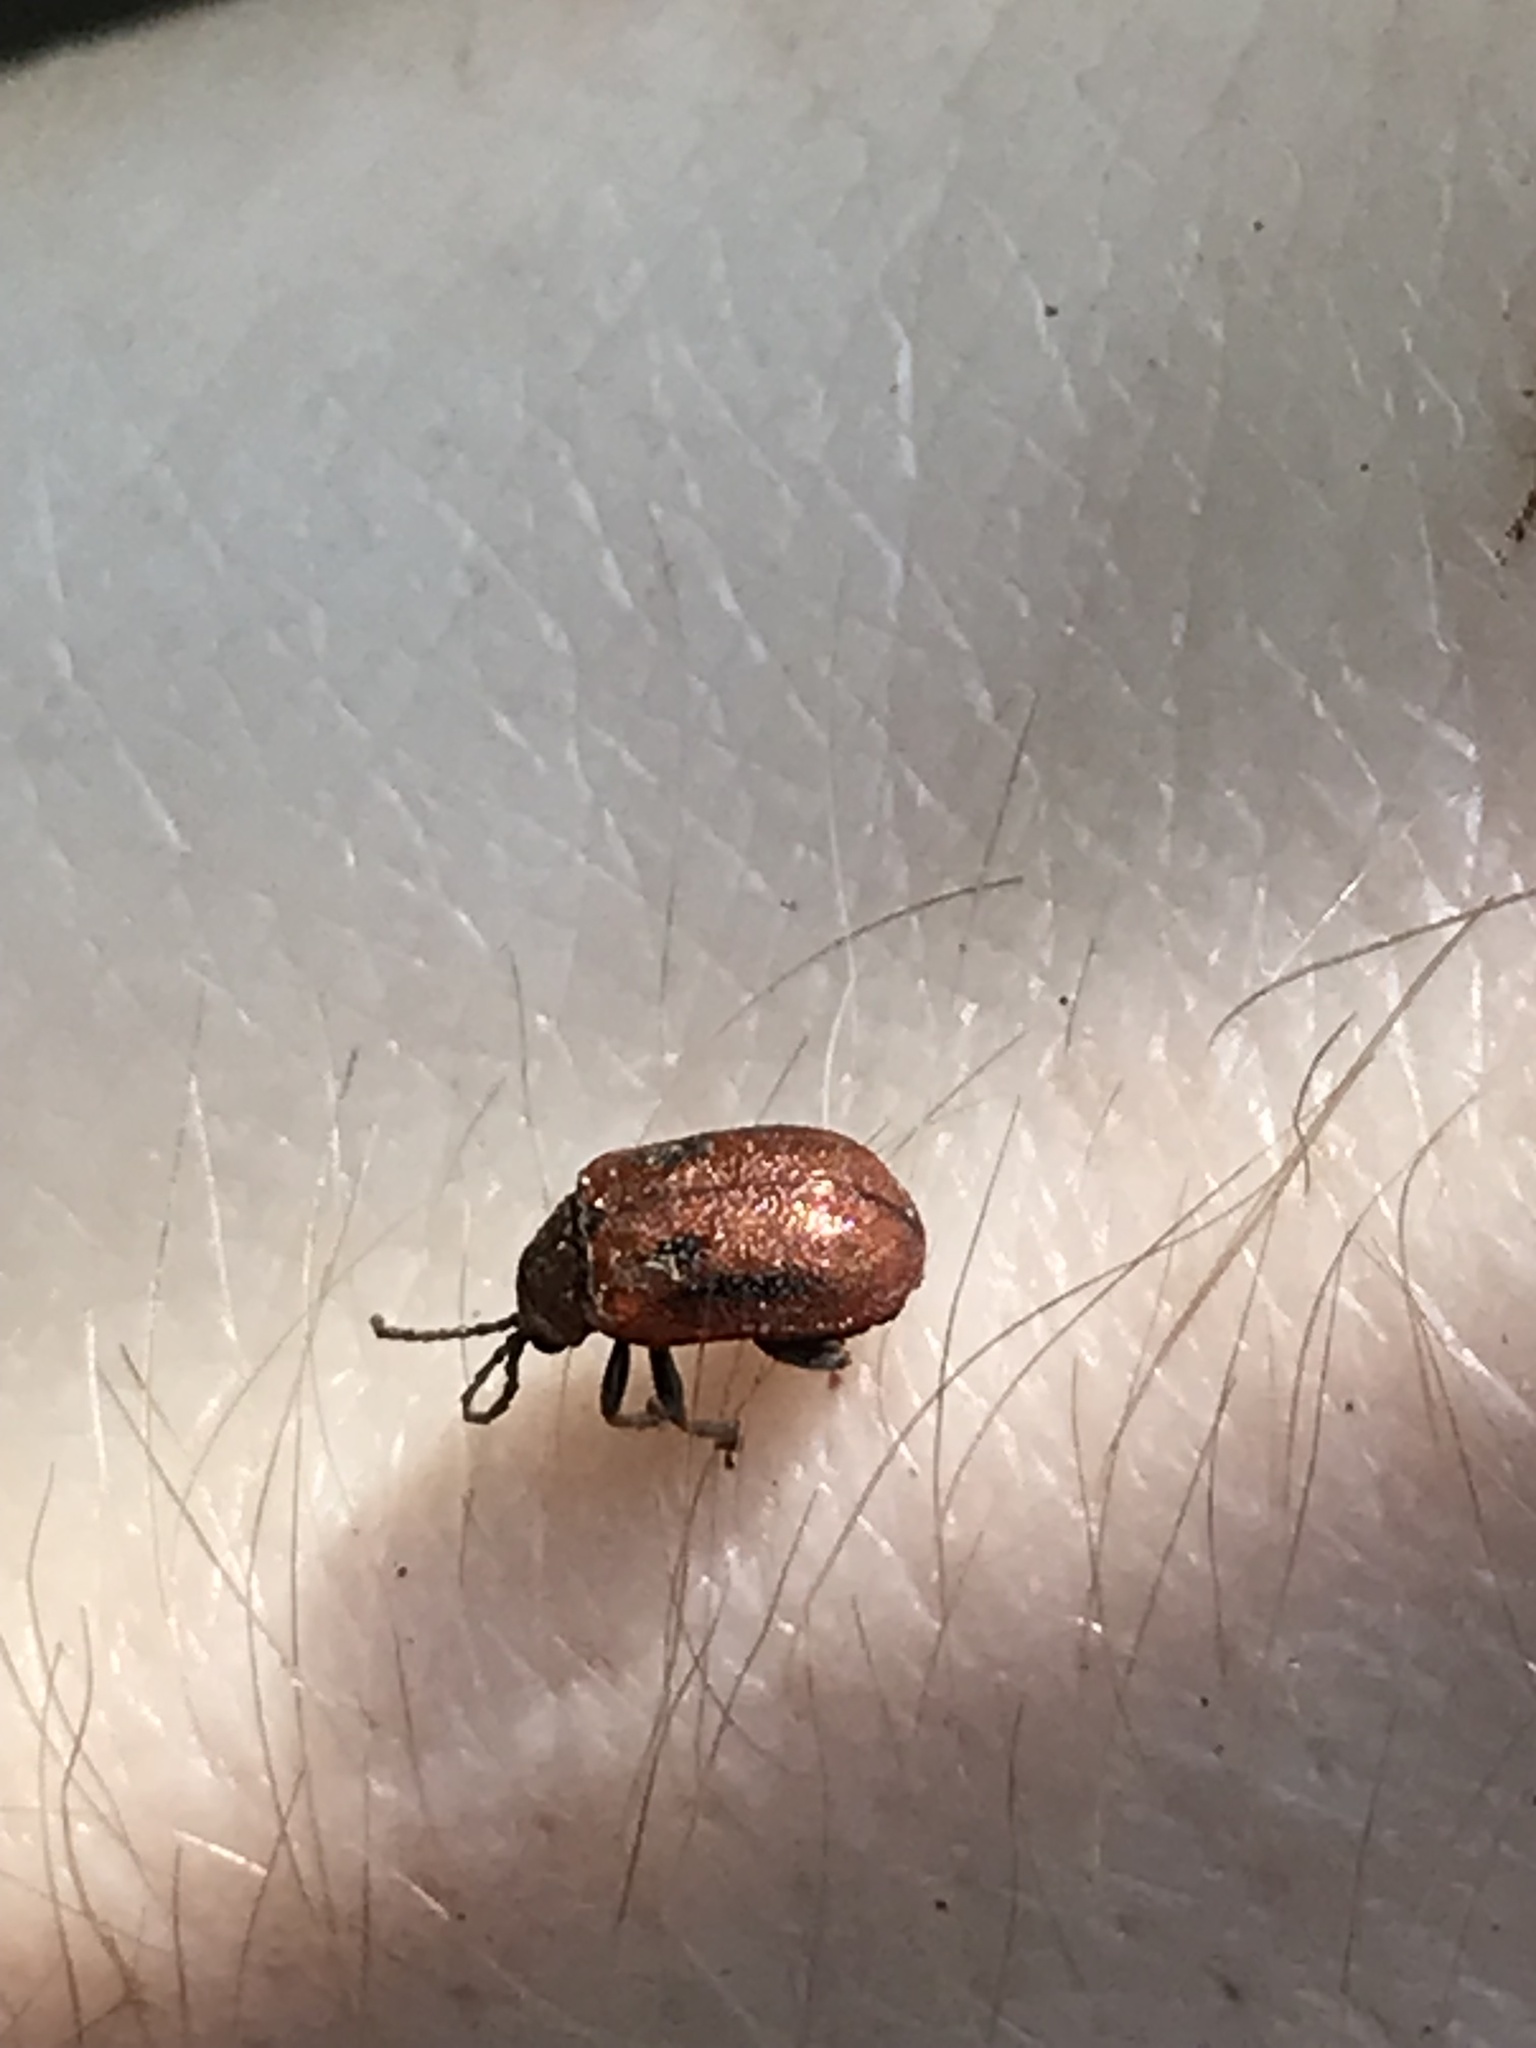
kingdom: Animalia
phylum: Arthropoda
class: Insecta
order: Coleoptera
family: Chrysomelidae
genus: Lochmaea
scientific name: Lochmaea crataegi
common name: Hawthorn leaf beetle
